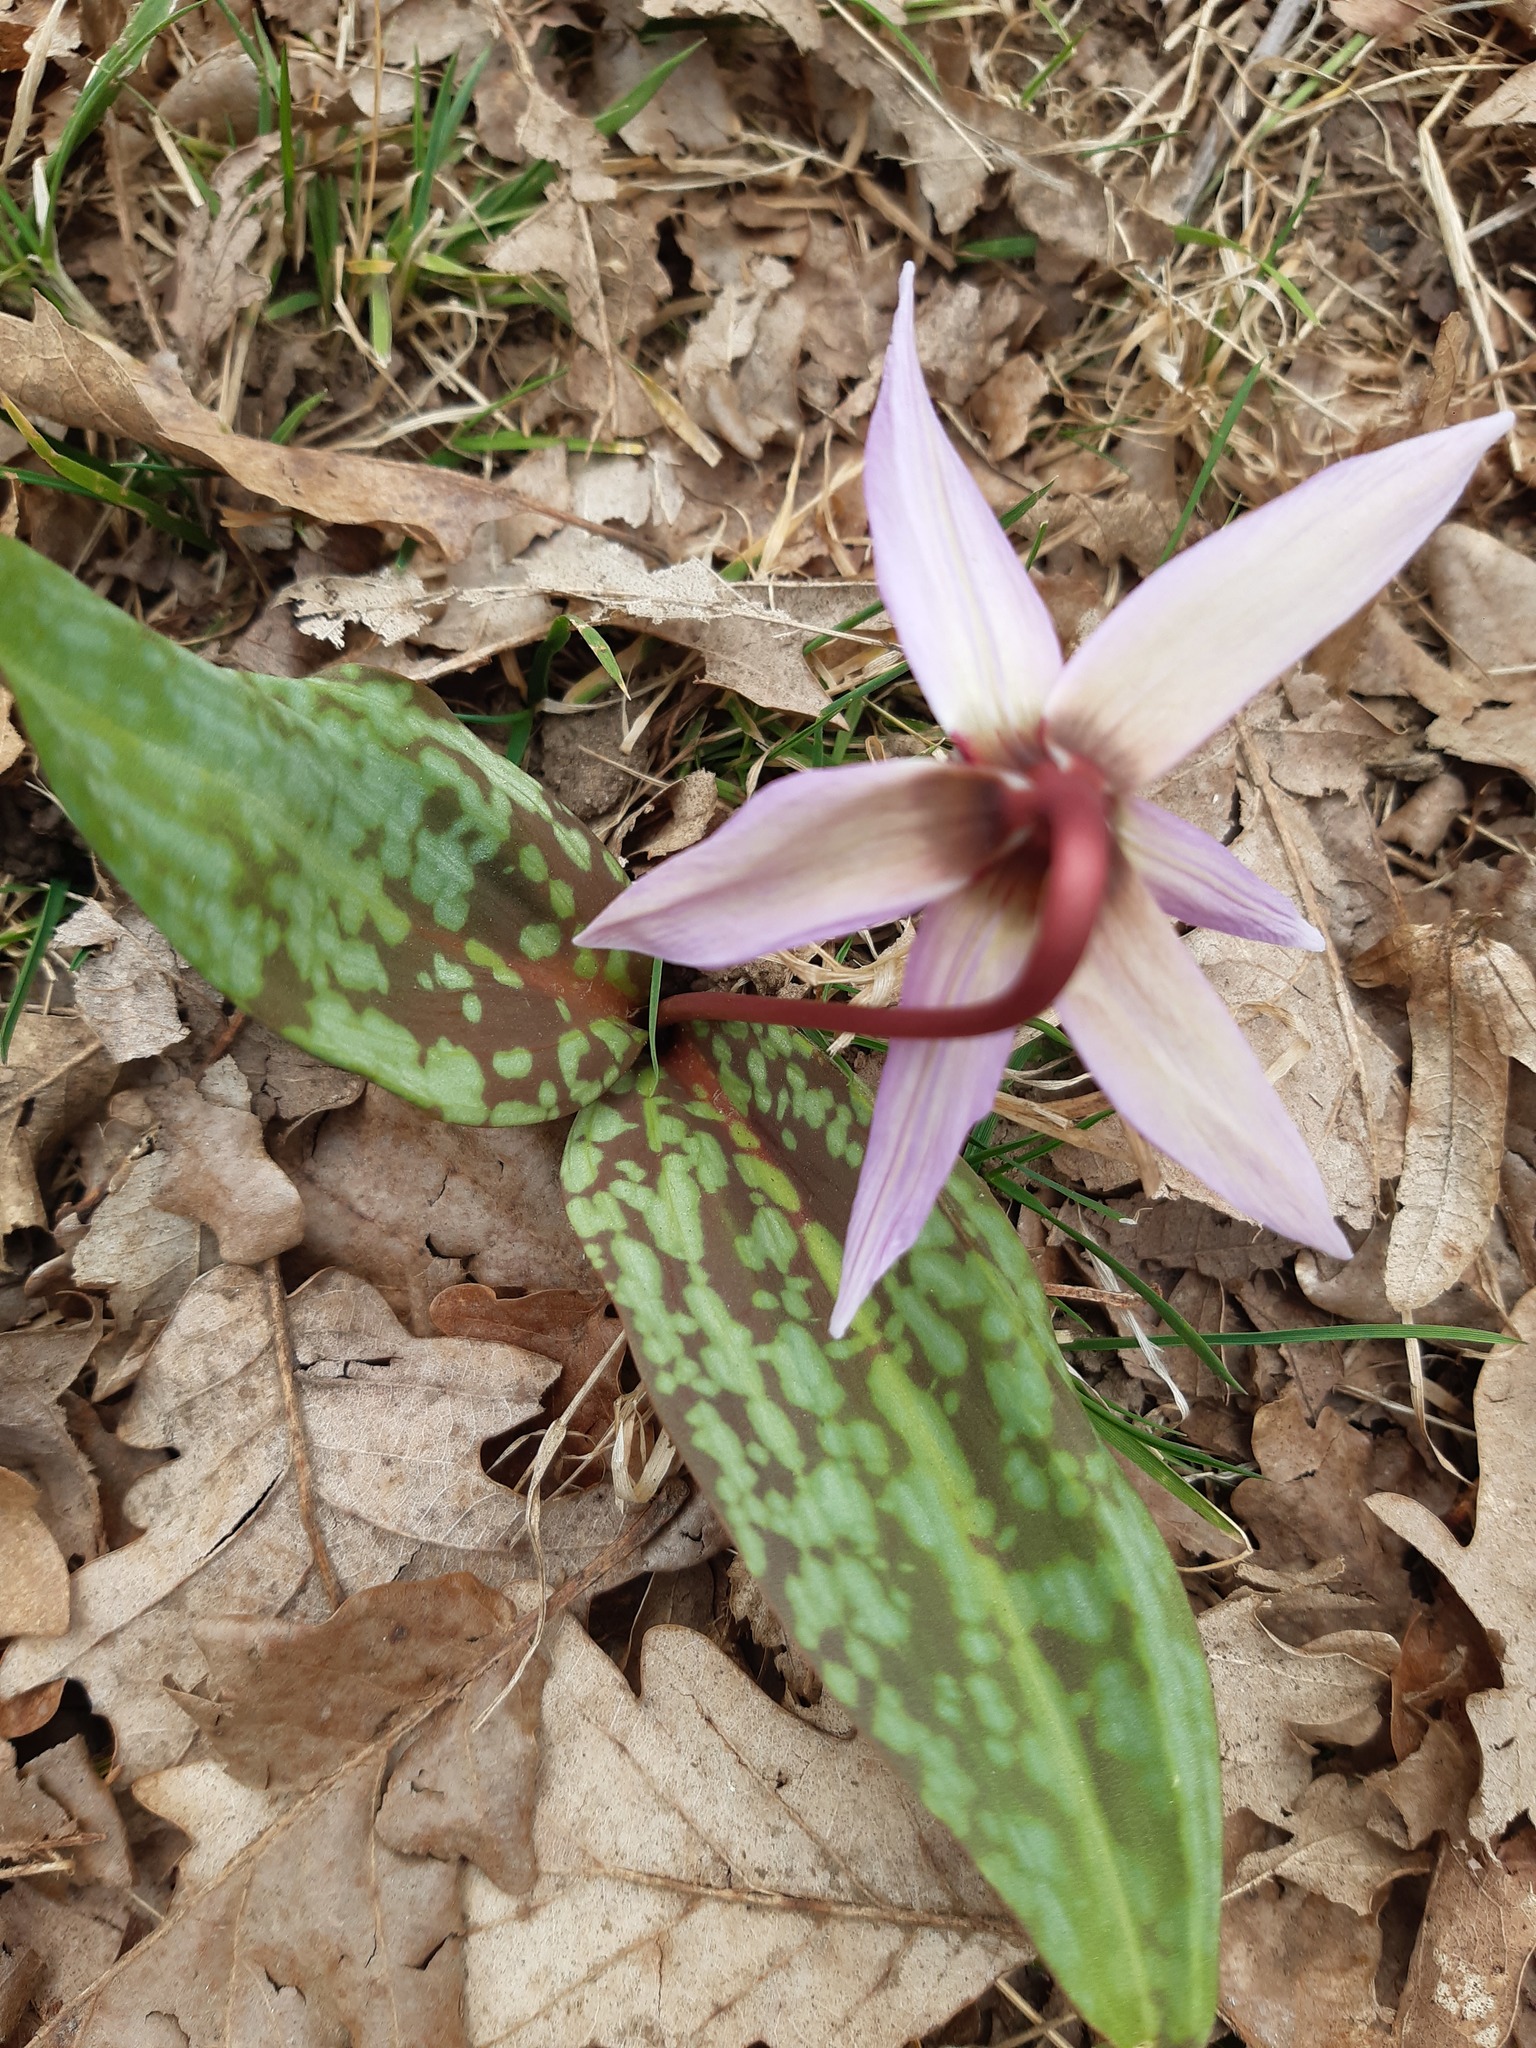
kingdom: Plantae
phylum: Tracheophyta
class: Liliopsida
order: Liliales
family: Liliaceae
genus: Erythronium
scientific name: Erythronium dens-canis
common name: Dog's-tooth-violet
